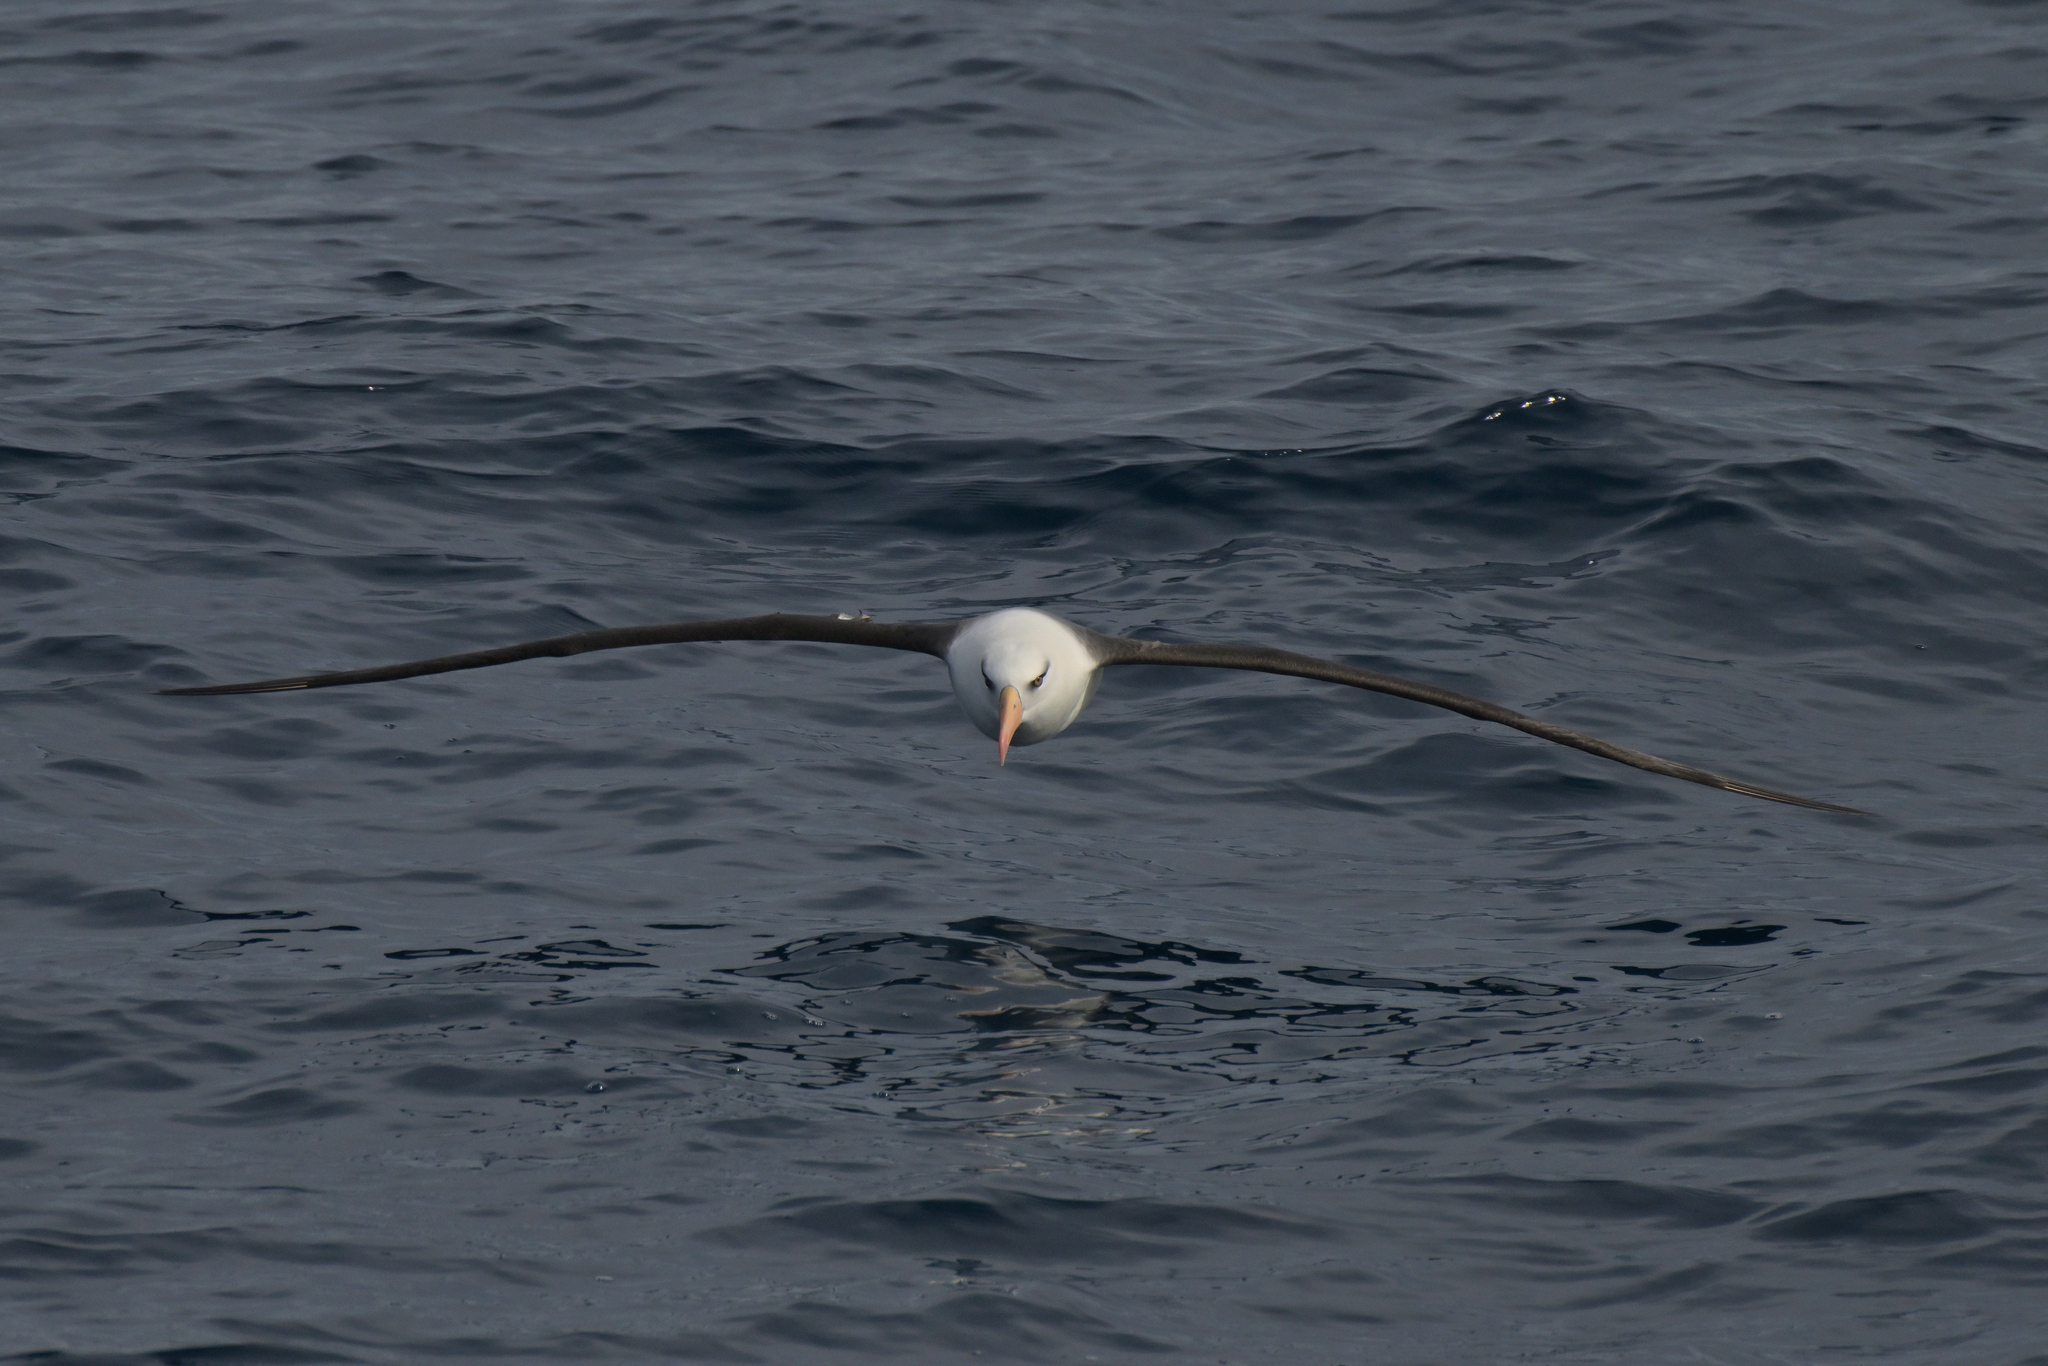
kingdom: Animalia
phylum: Chordata
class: Aves
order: Procellariiformes
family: Diomedeidae
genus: Thalassarche
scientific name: Thalassarche impavida
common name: Campbell albatross
